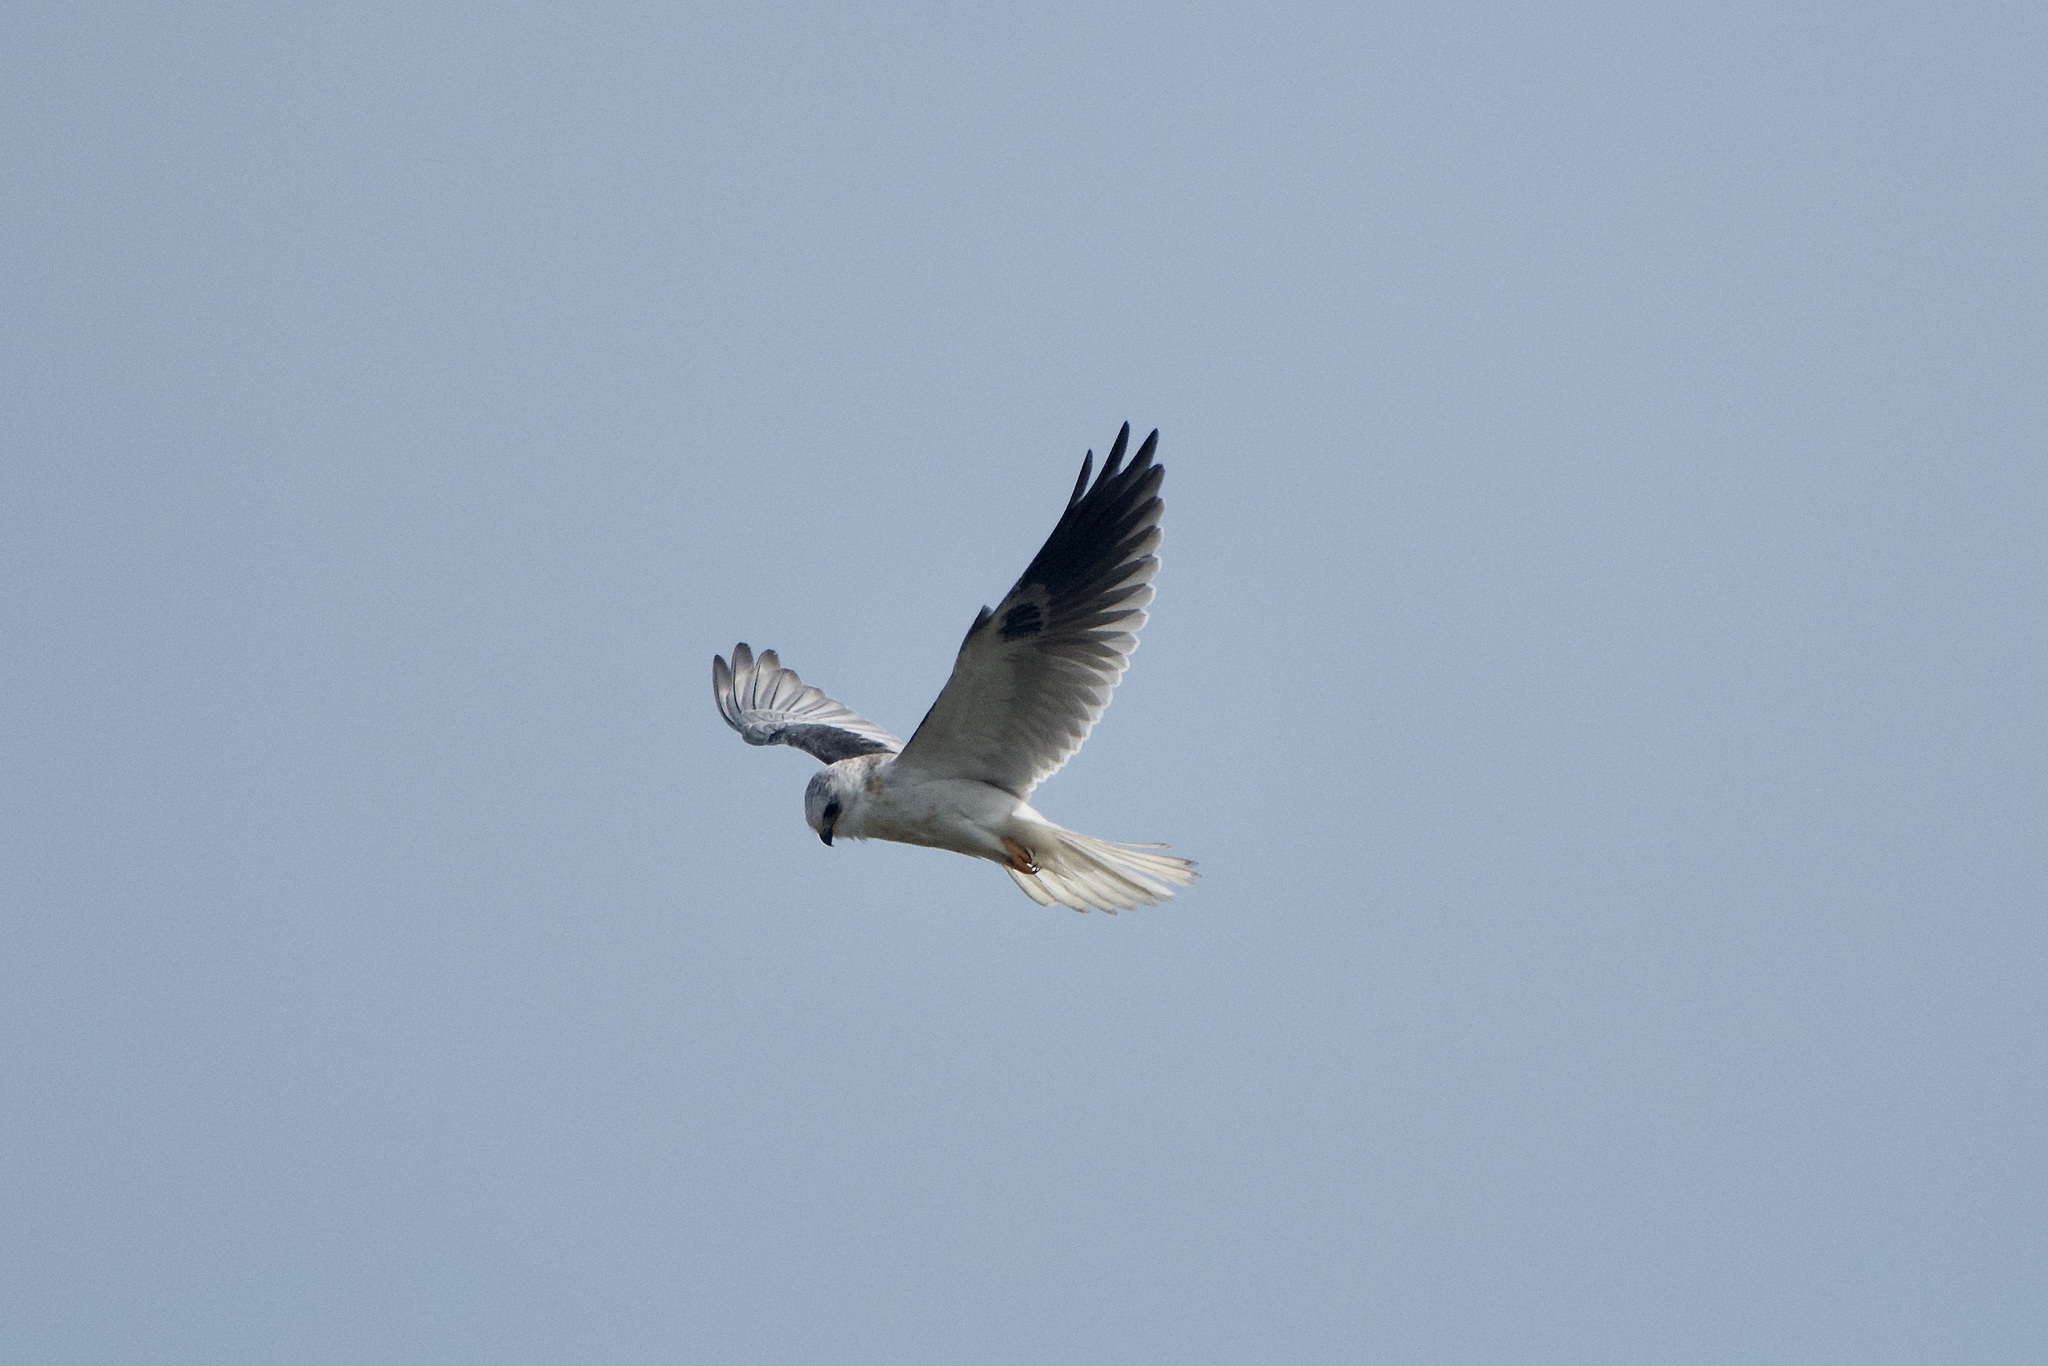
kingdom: Animalia
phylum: Chordata
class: Aves
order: Accipitriformes
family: Accipitridae
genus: Elanus
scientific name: Elanus leucurus
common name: White-tailed kite
